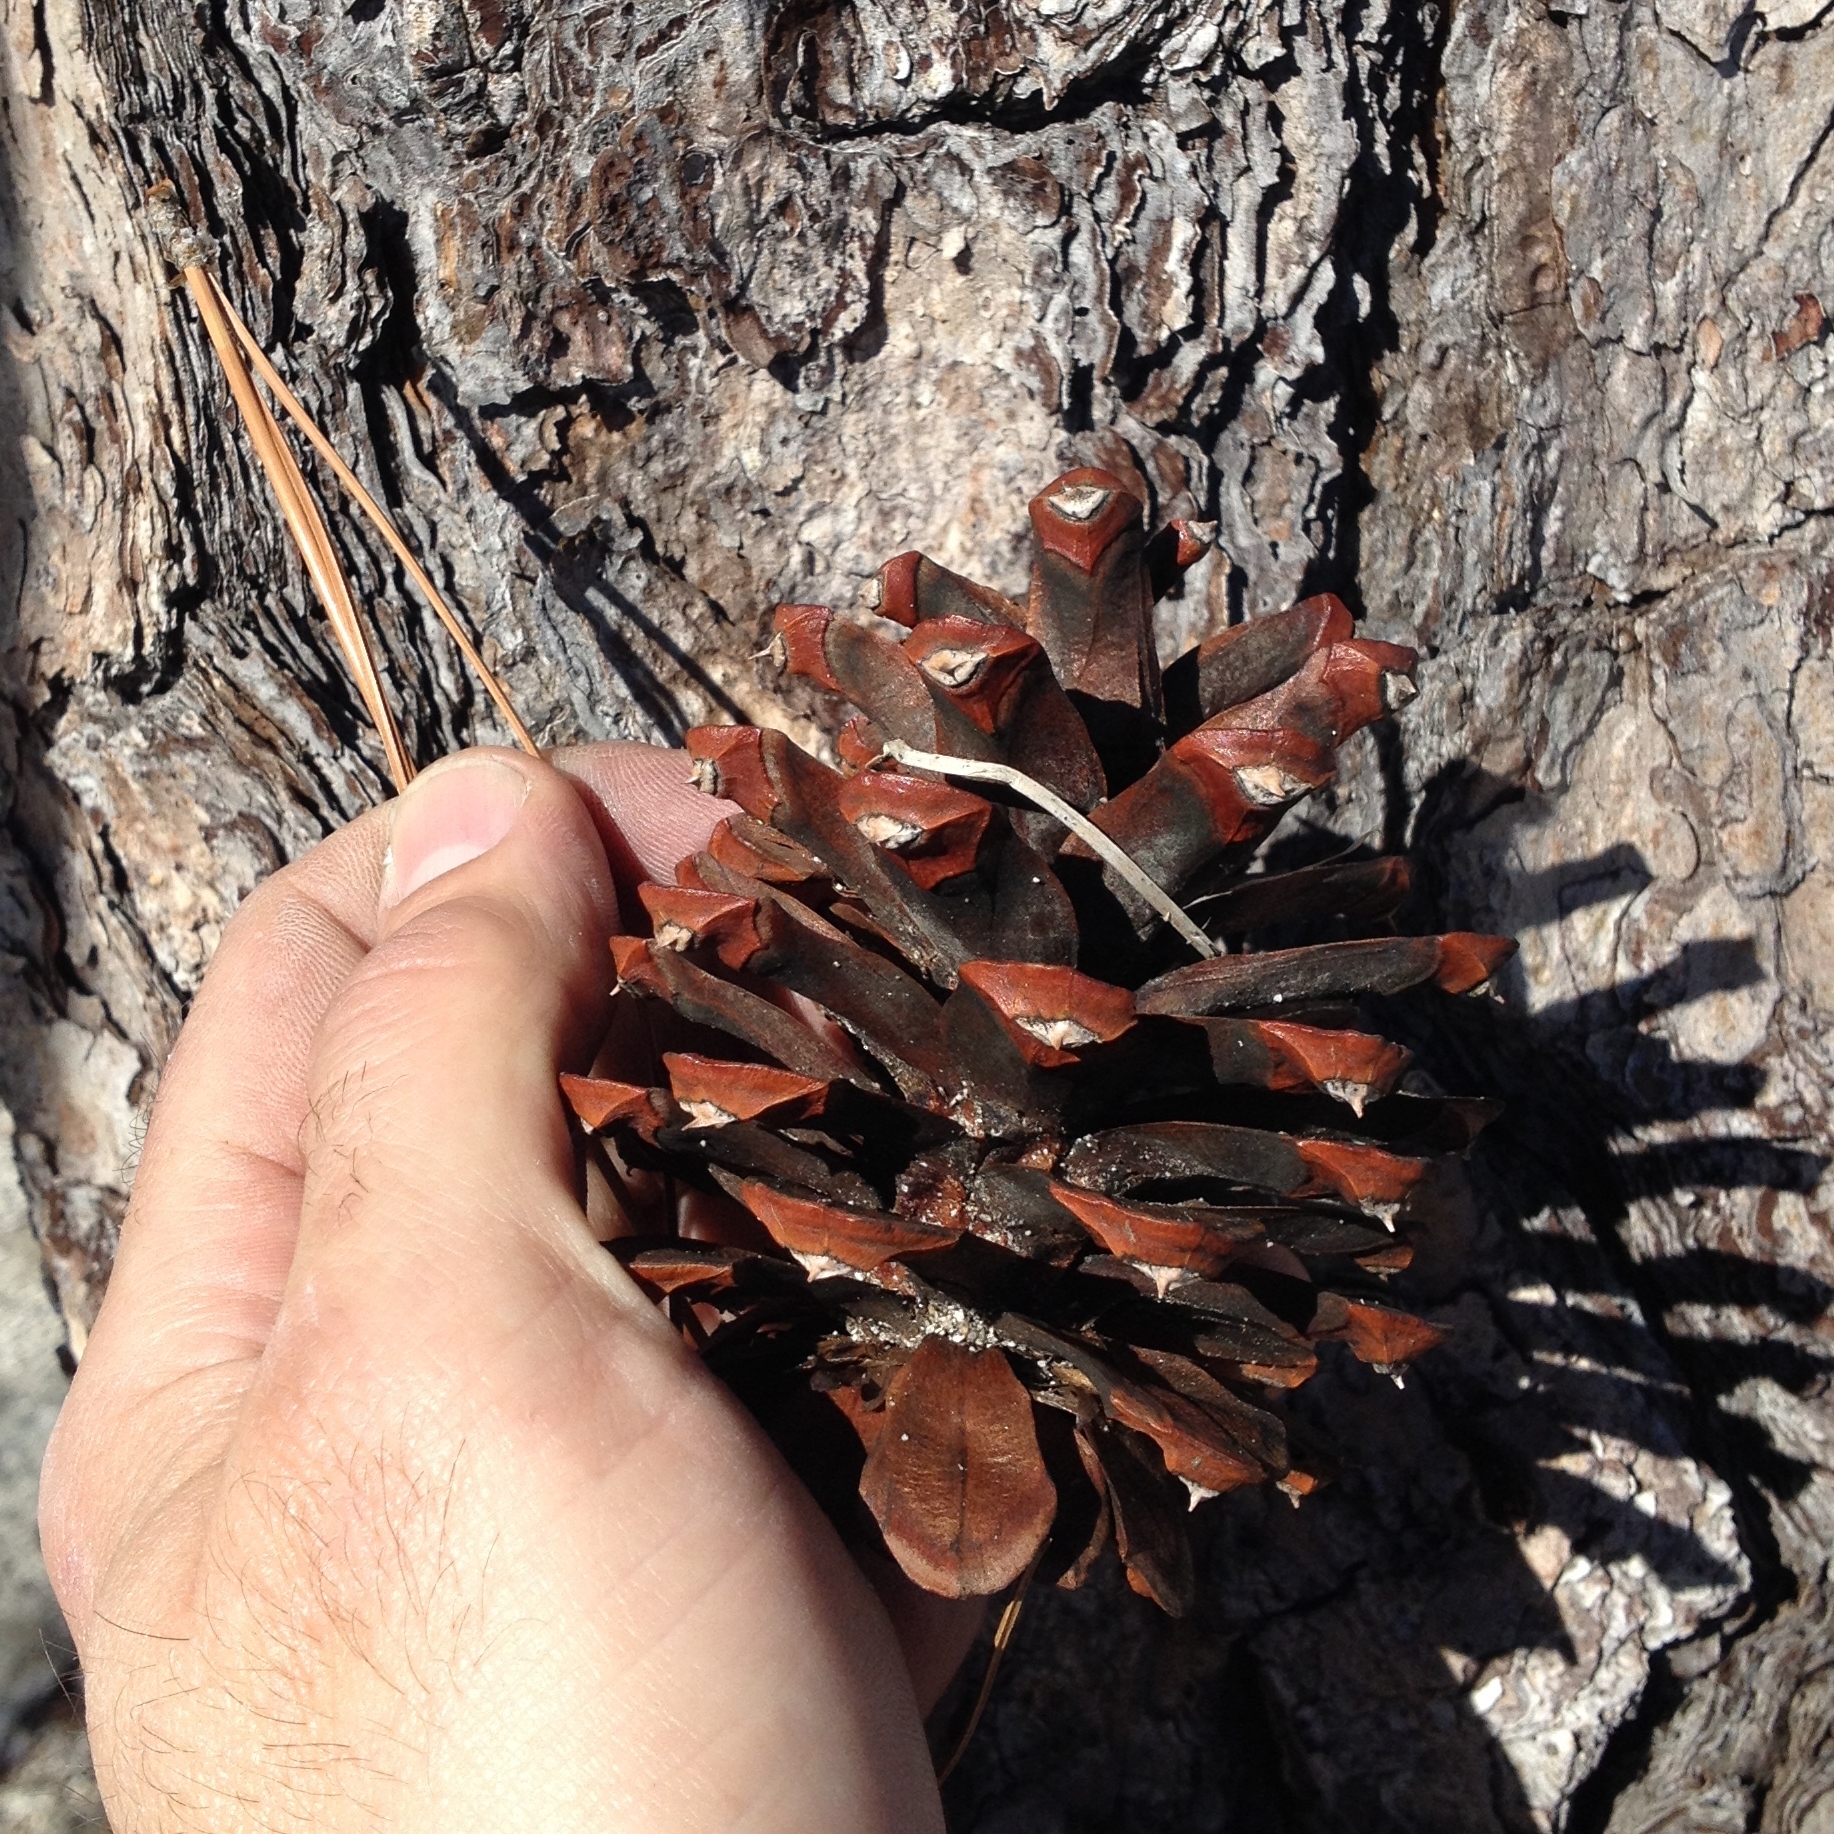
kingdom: Plantae
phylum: Tracheophyta
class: Pinopsida
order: Pinales
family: Pinaceae
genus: Pinus
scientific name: Pinus ponderosa
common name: Western yellow-pine
